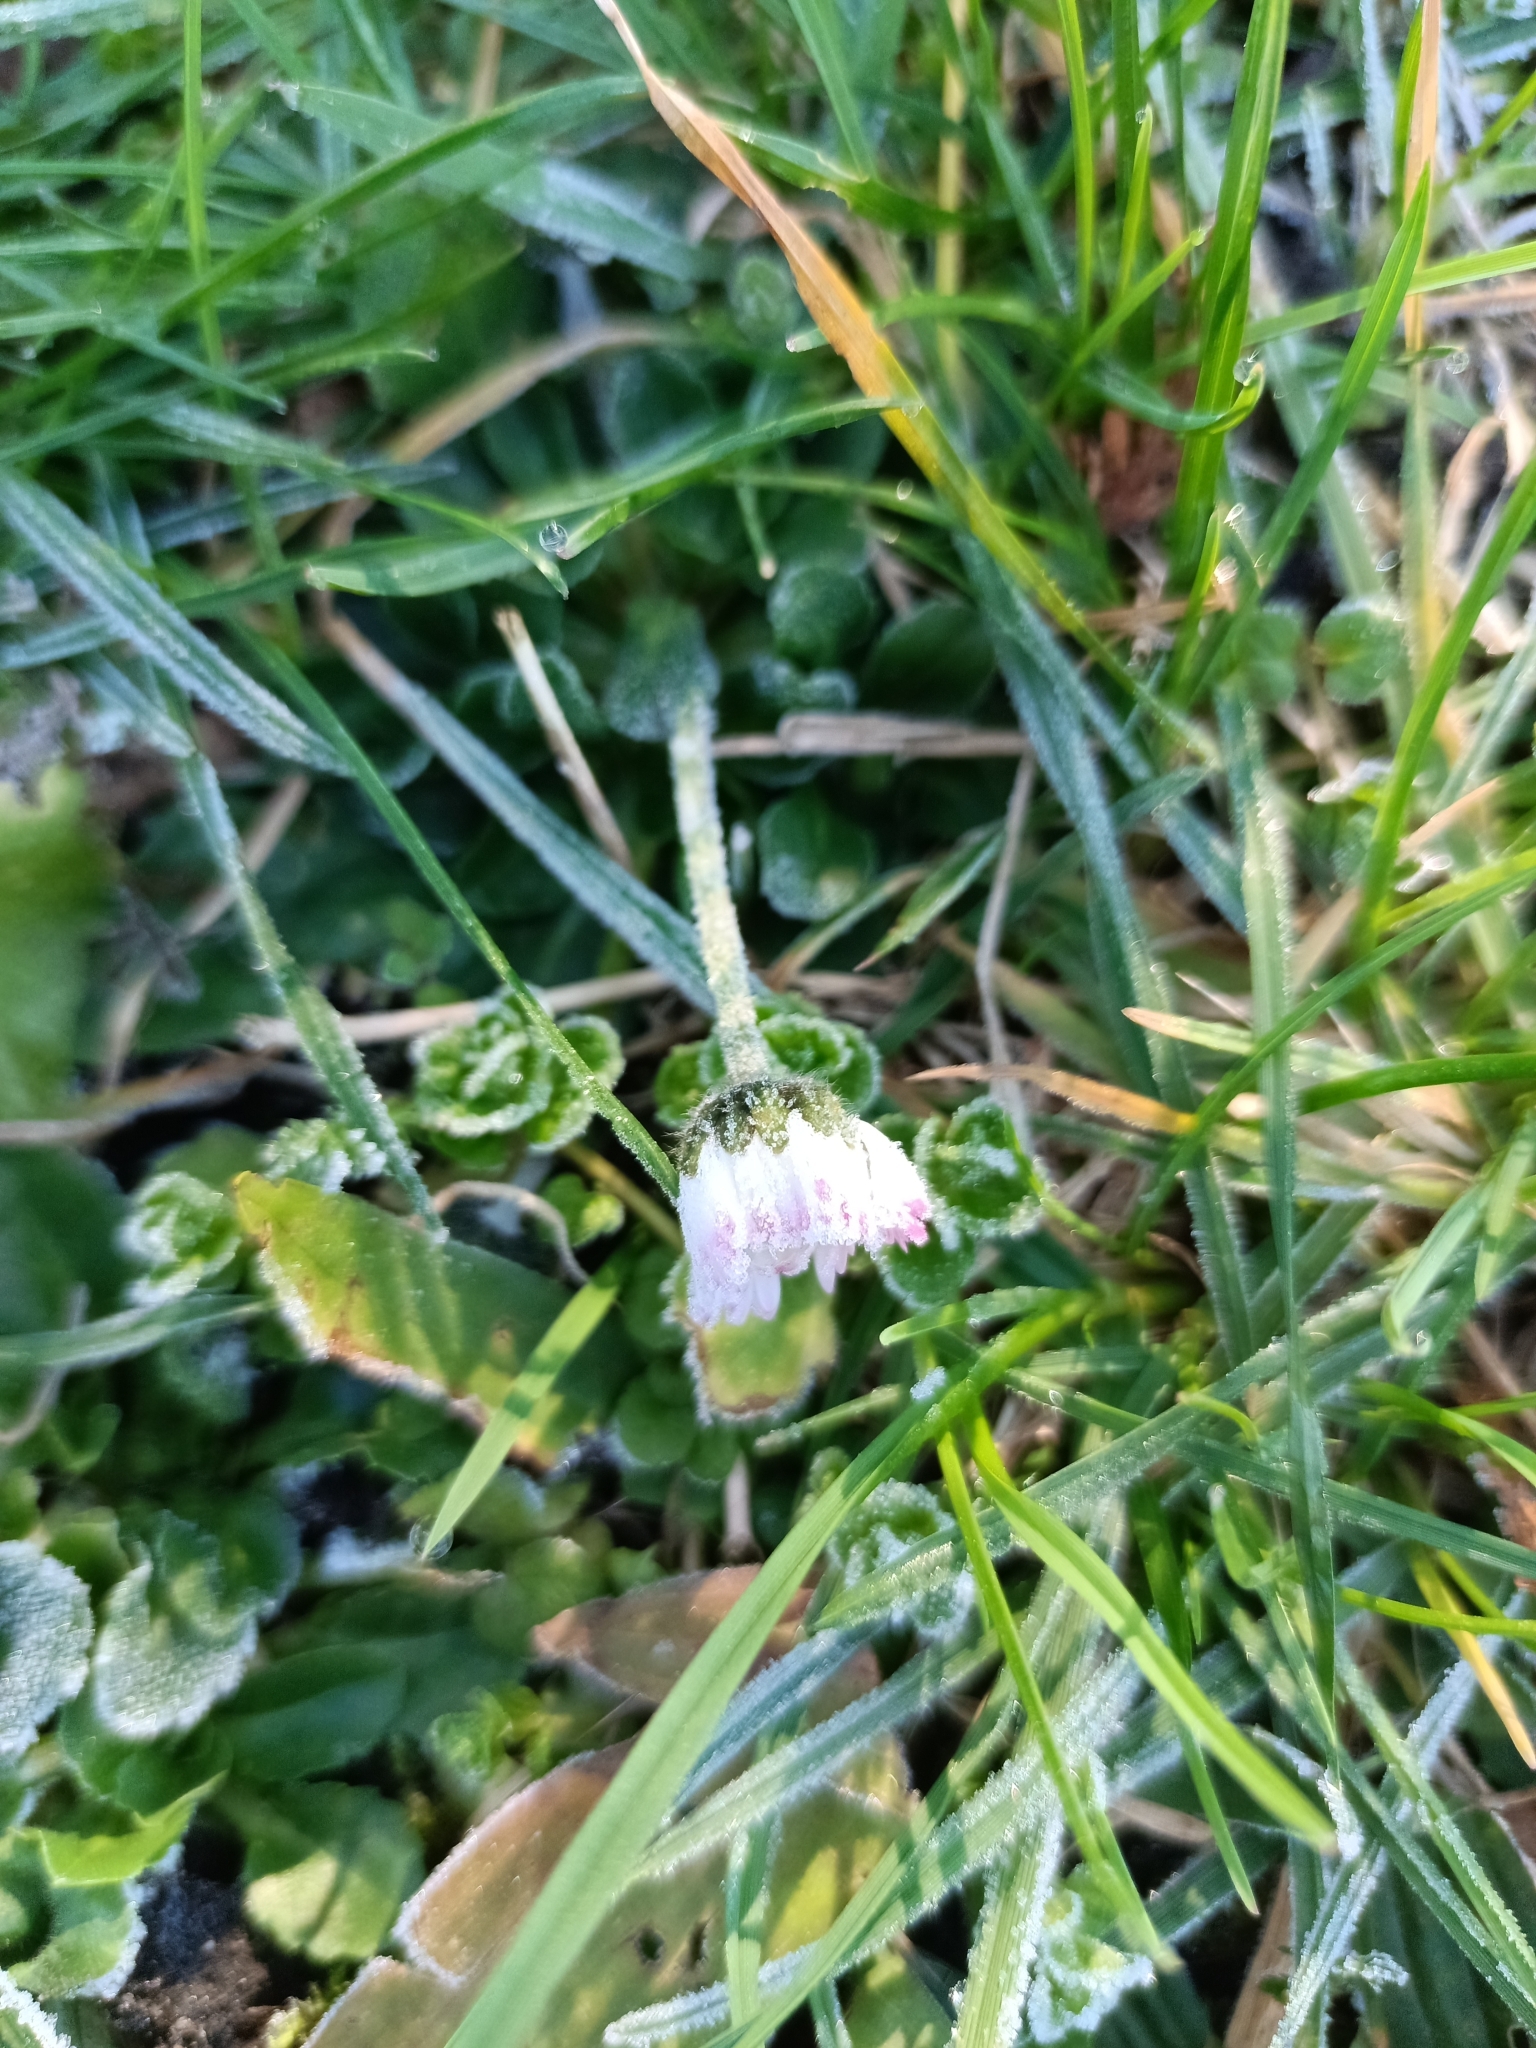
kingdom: Plantae
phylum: Tracheophyta
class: Magnoliopsida
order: Asterales
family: Asteraceae
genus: Bellis
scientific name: Bellis perennis
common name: Lawndaisy
